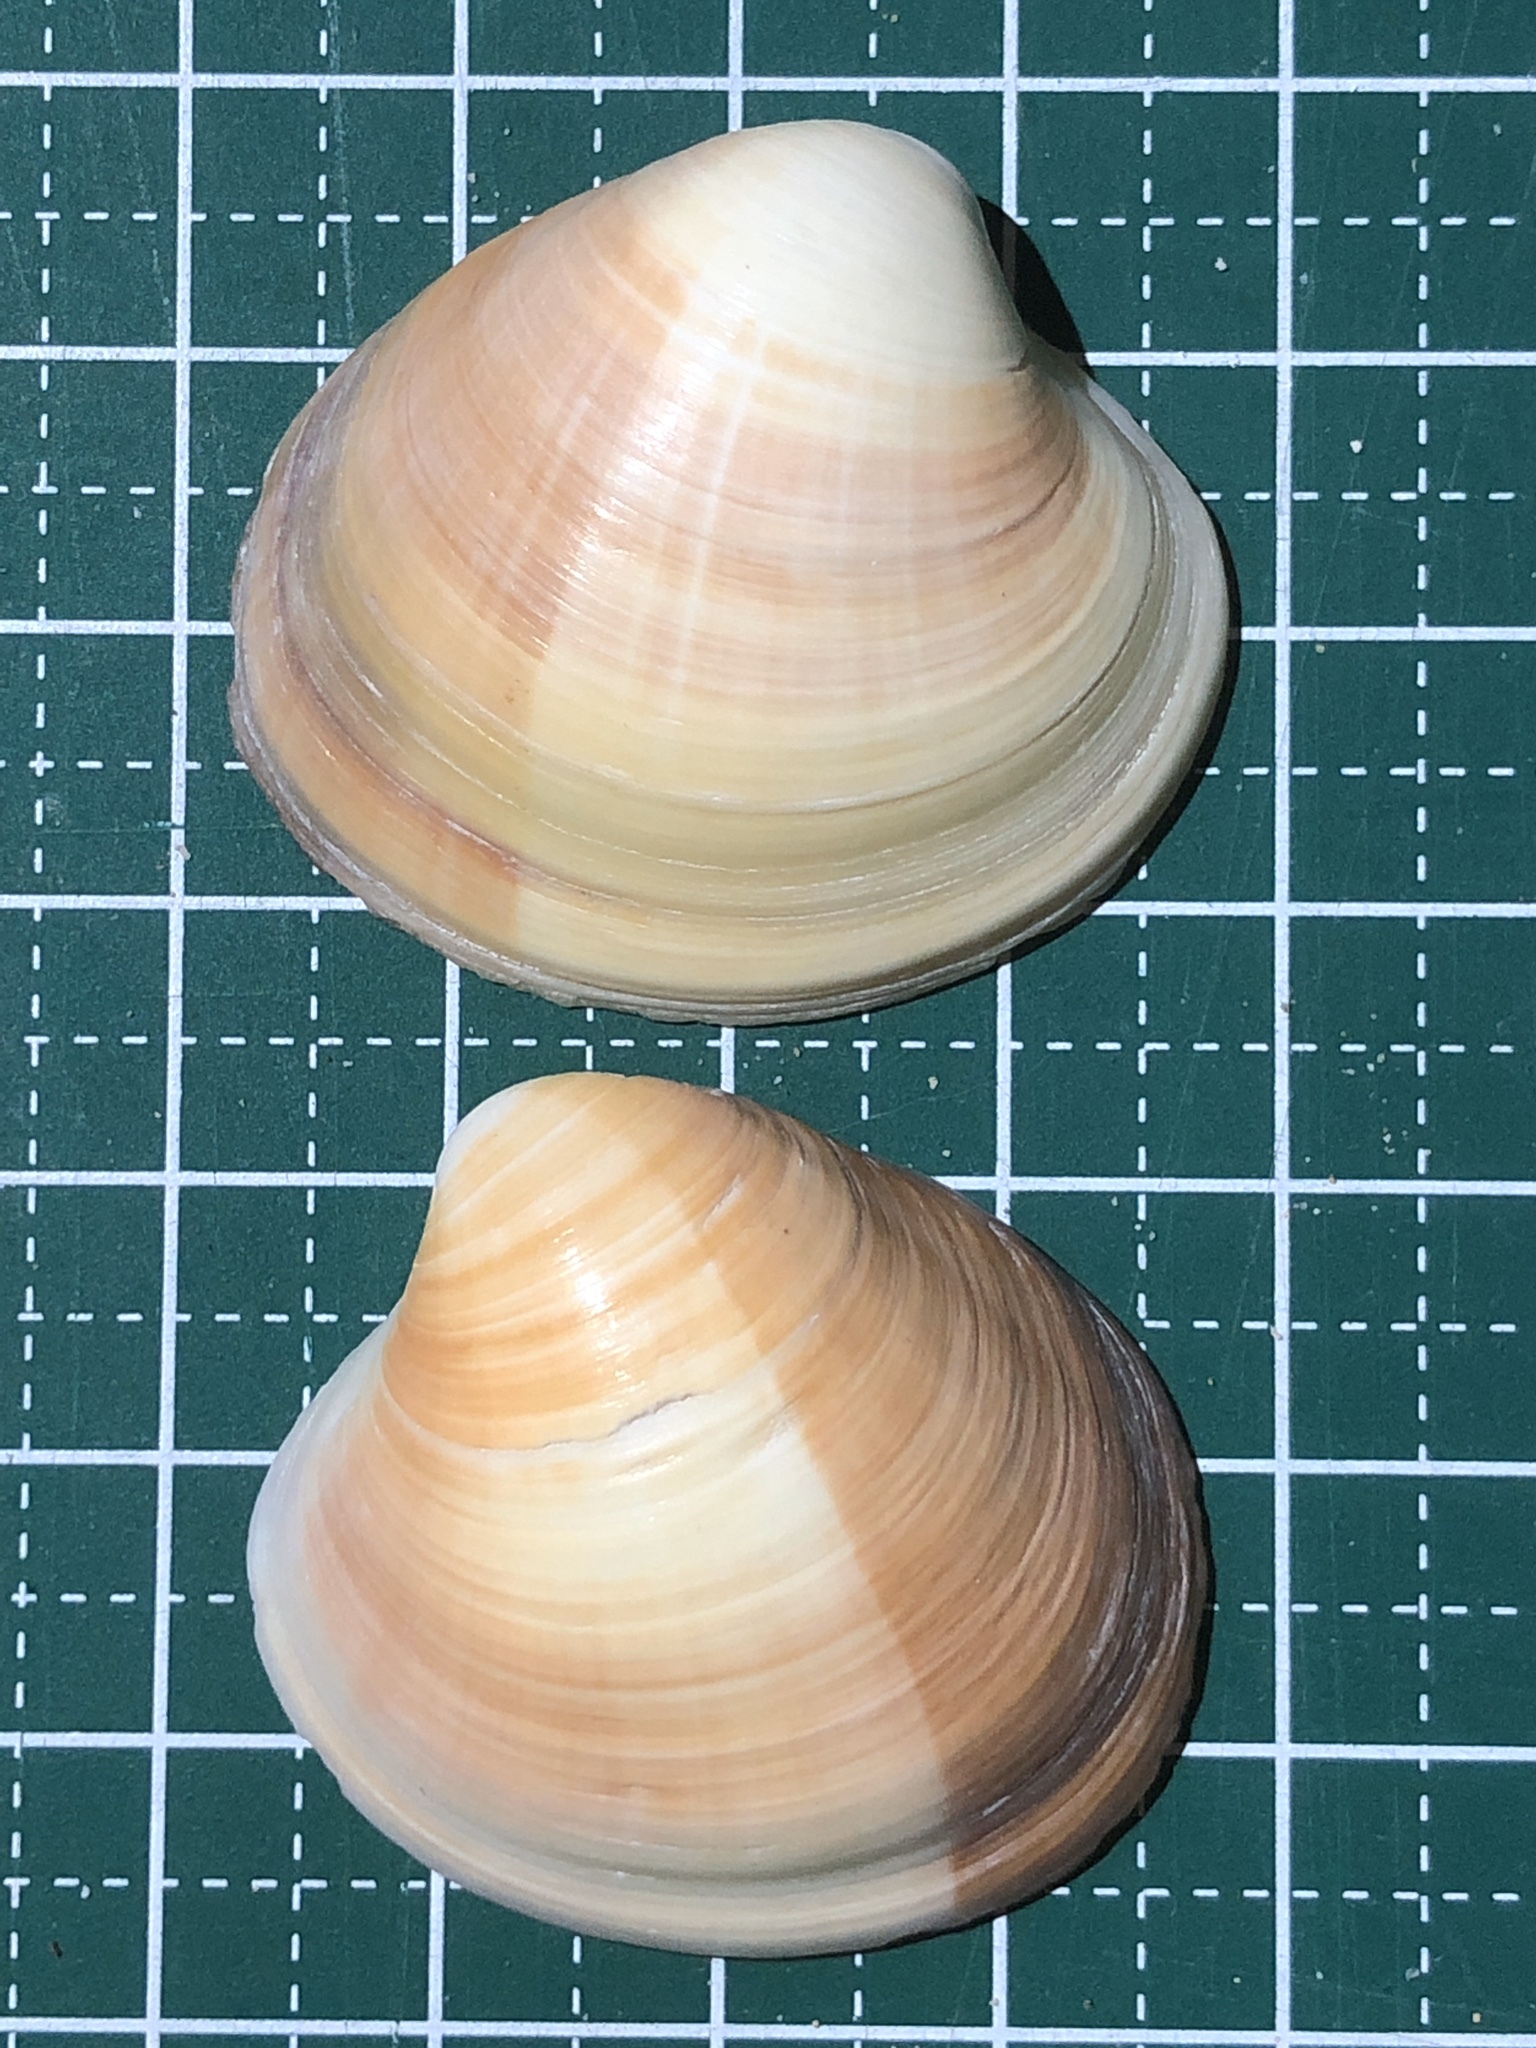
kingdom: Animalia
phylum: Mollusca
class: Bivalvia
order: Venerida
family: Veneridae
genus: Pitar
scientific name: Pitar citrinus
